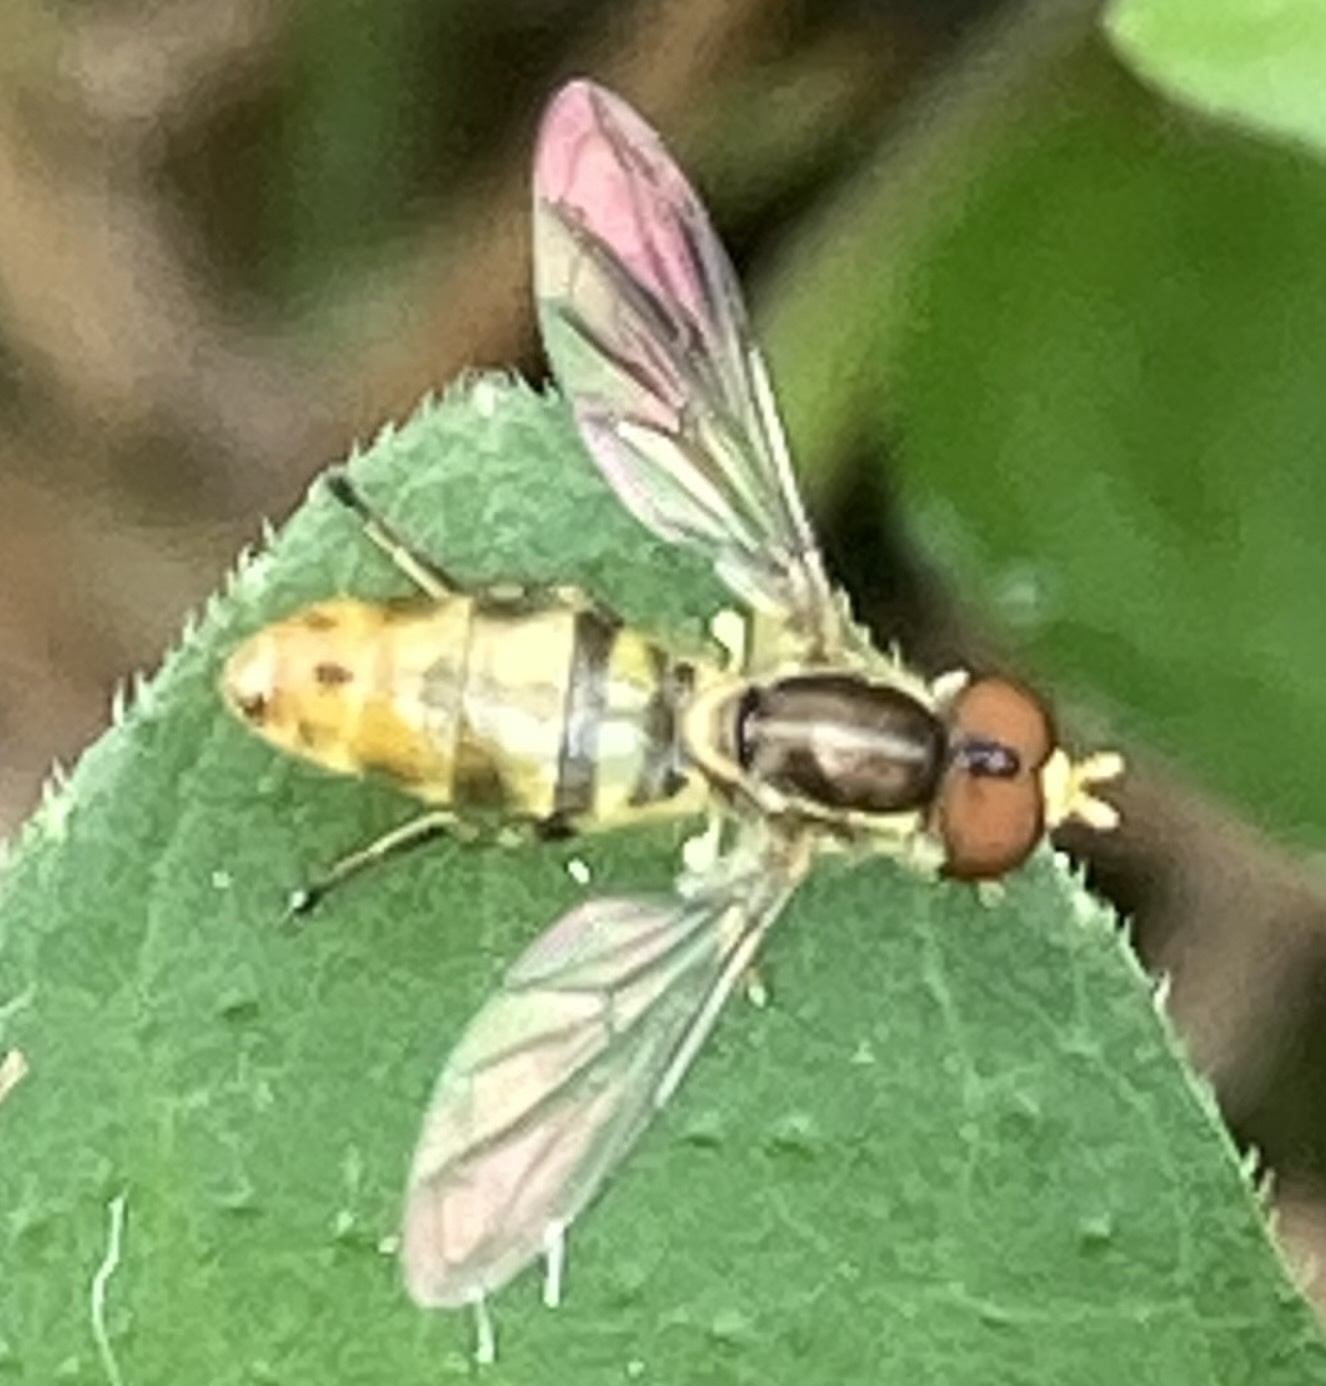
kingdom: Animalia
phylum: Arthropoda
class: Insecta
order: Diptera
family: Syrphidae
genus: Toxomerus
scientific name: Toxomerus floralis
